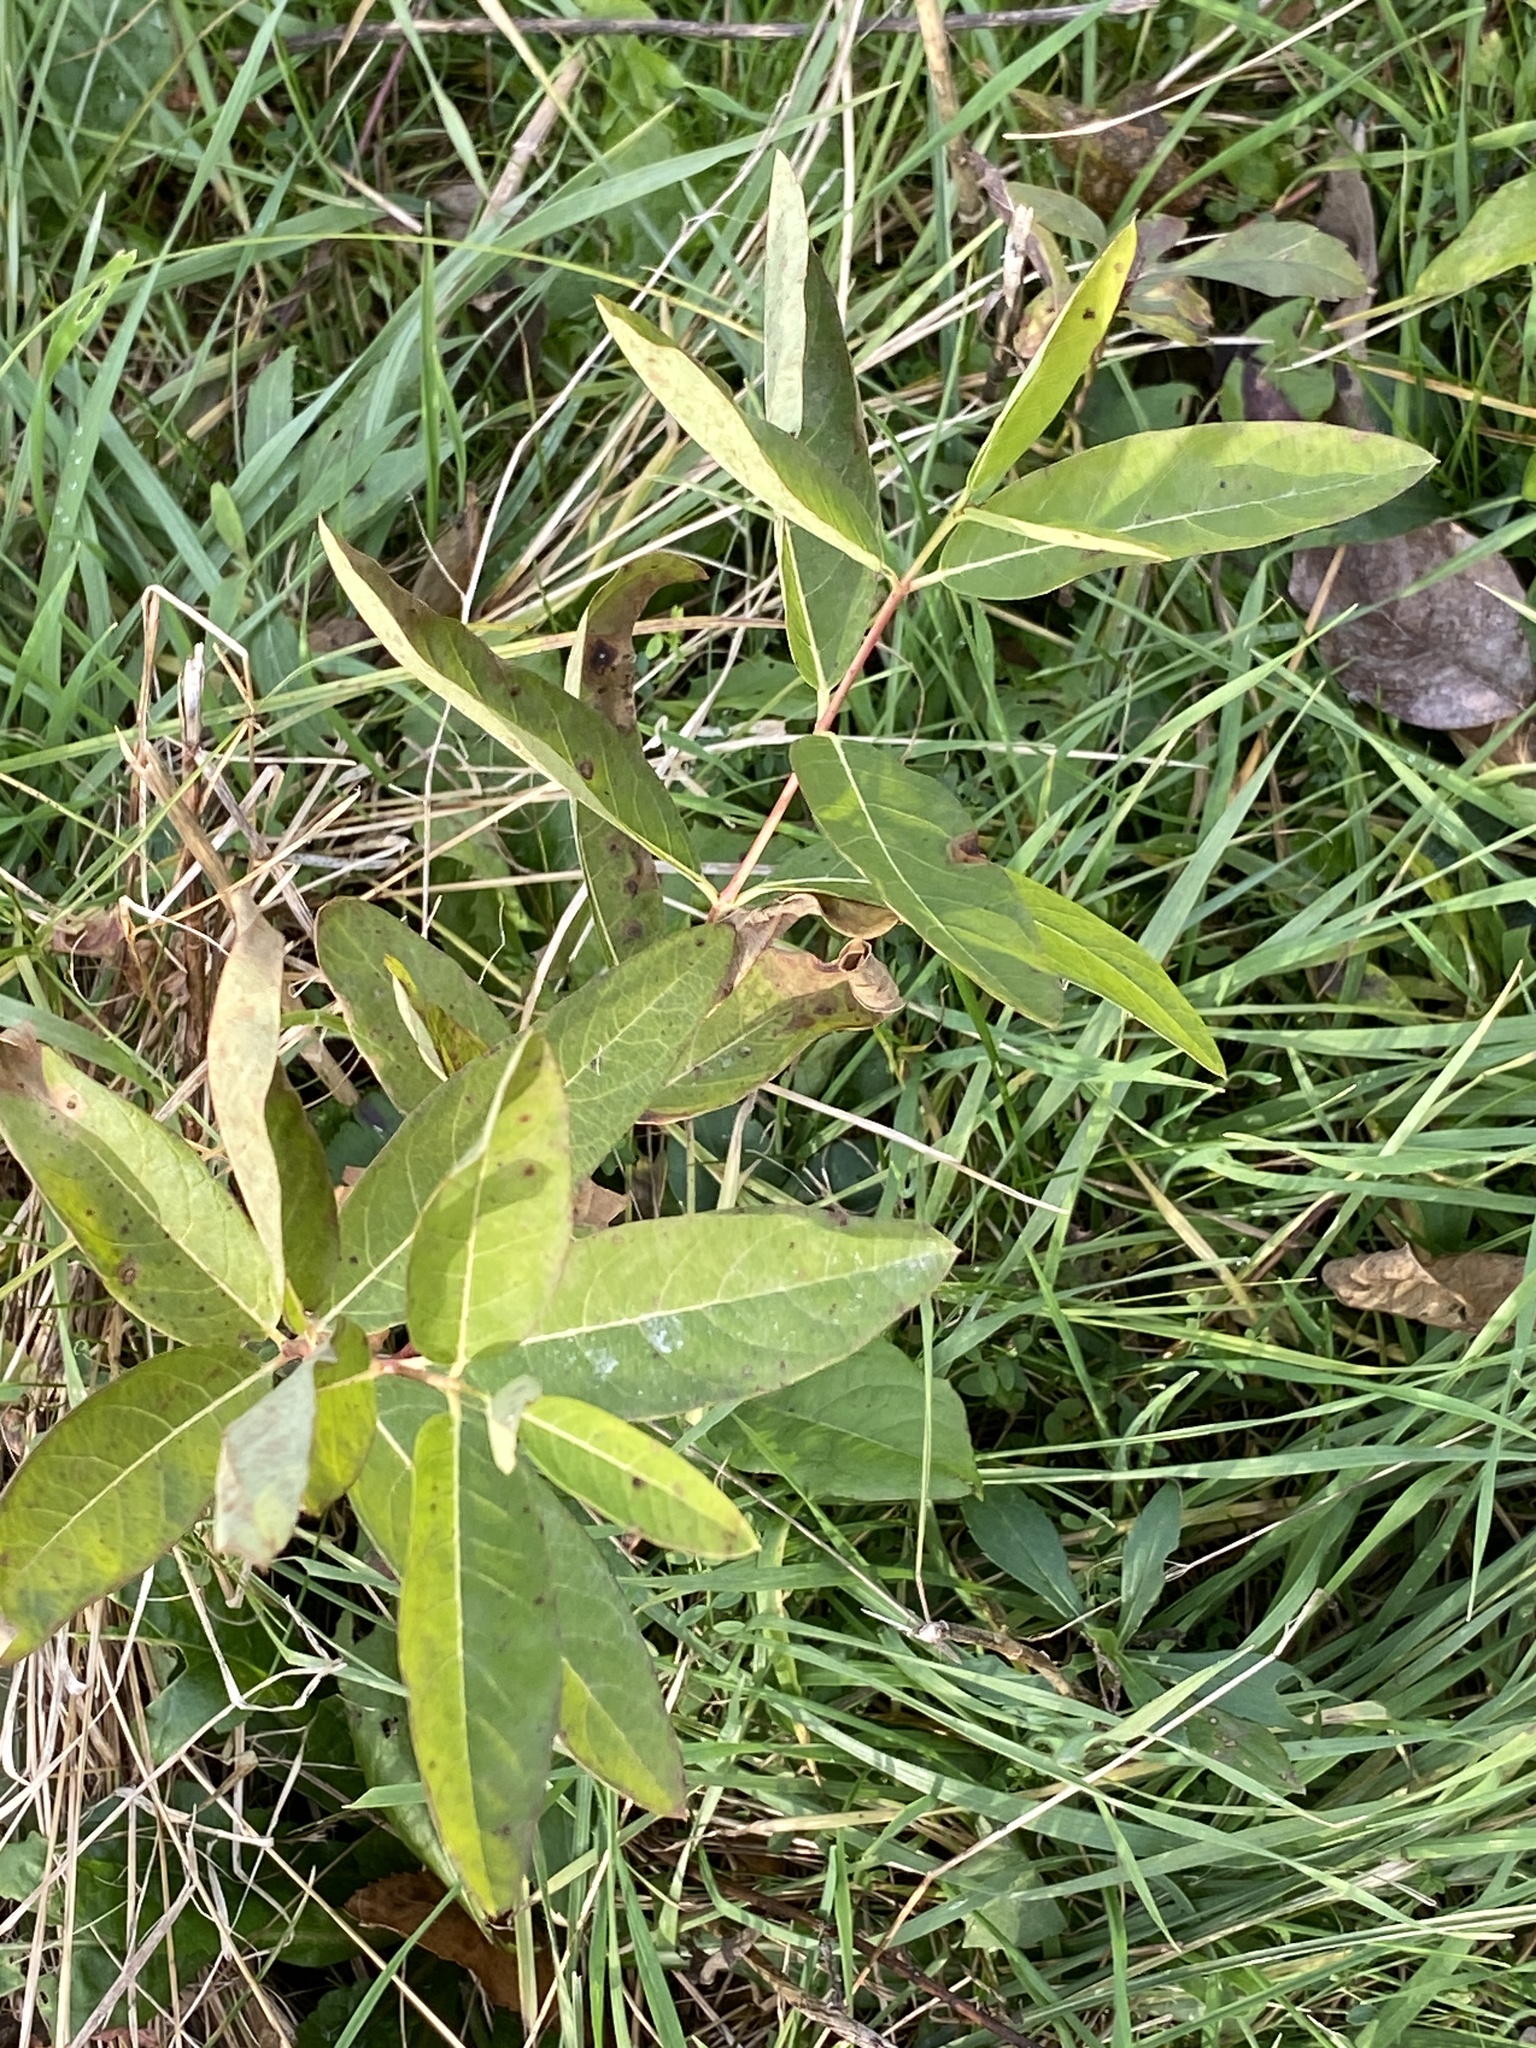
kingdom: Plantae
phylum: Tracheophyta
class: Magnoliopsida
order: Gentianales
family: Apocynaceae
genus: Apocynum
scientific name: Apocynum cannabinum
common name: Hemp dogbane
